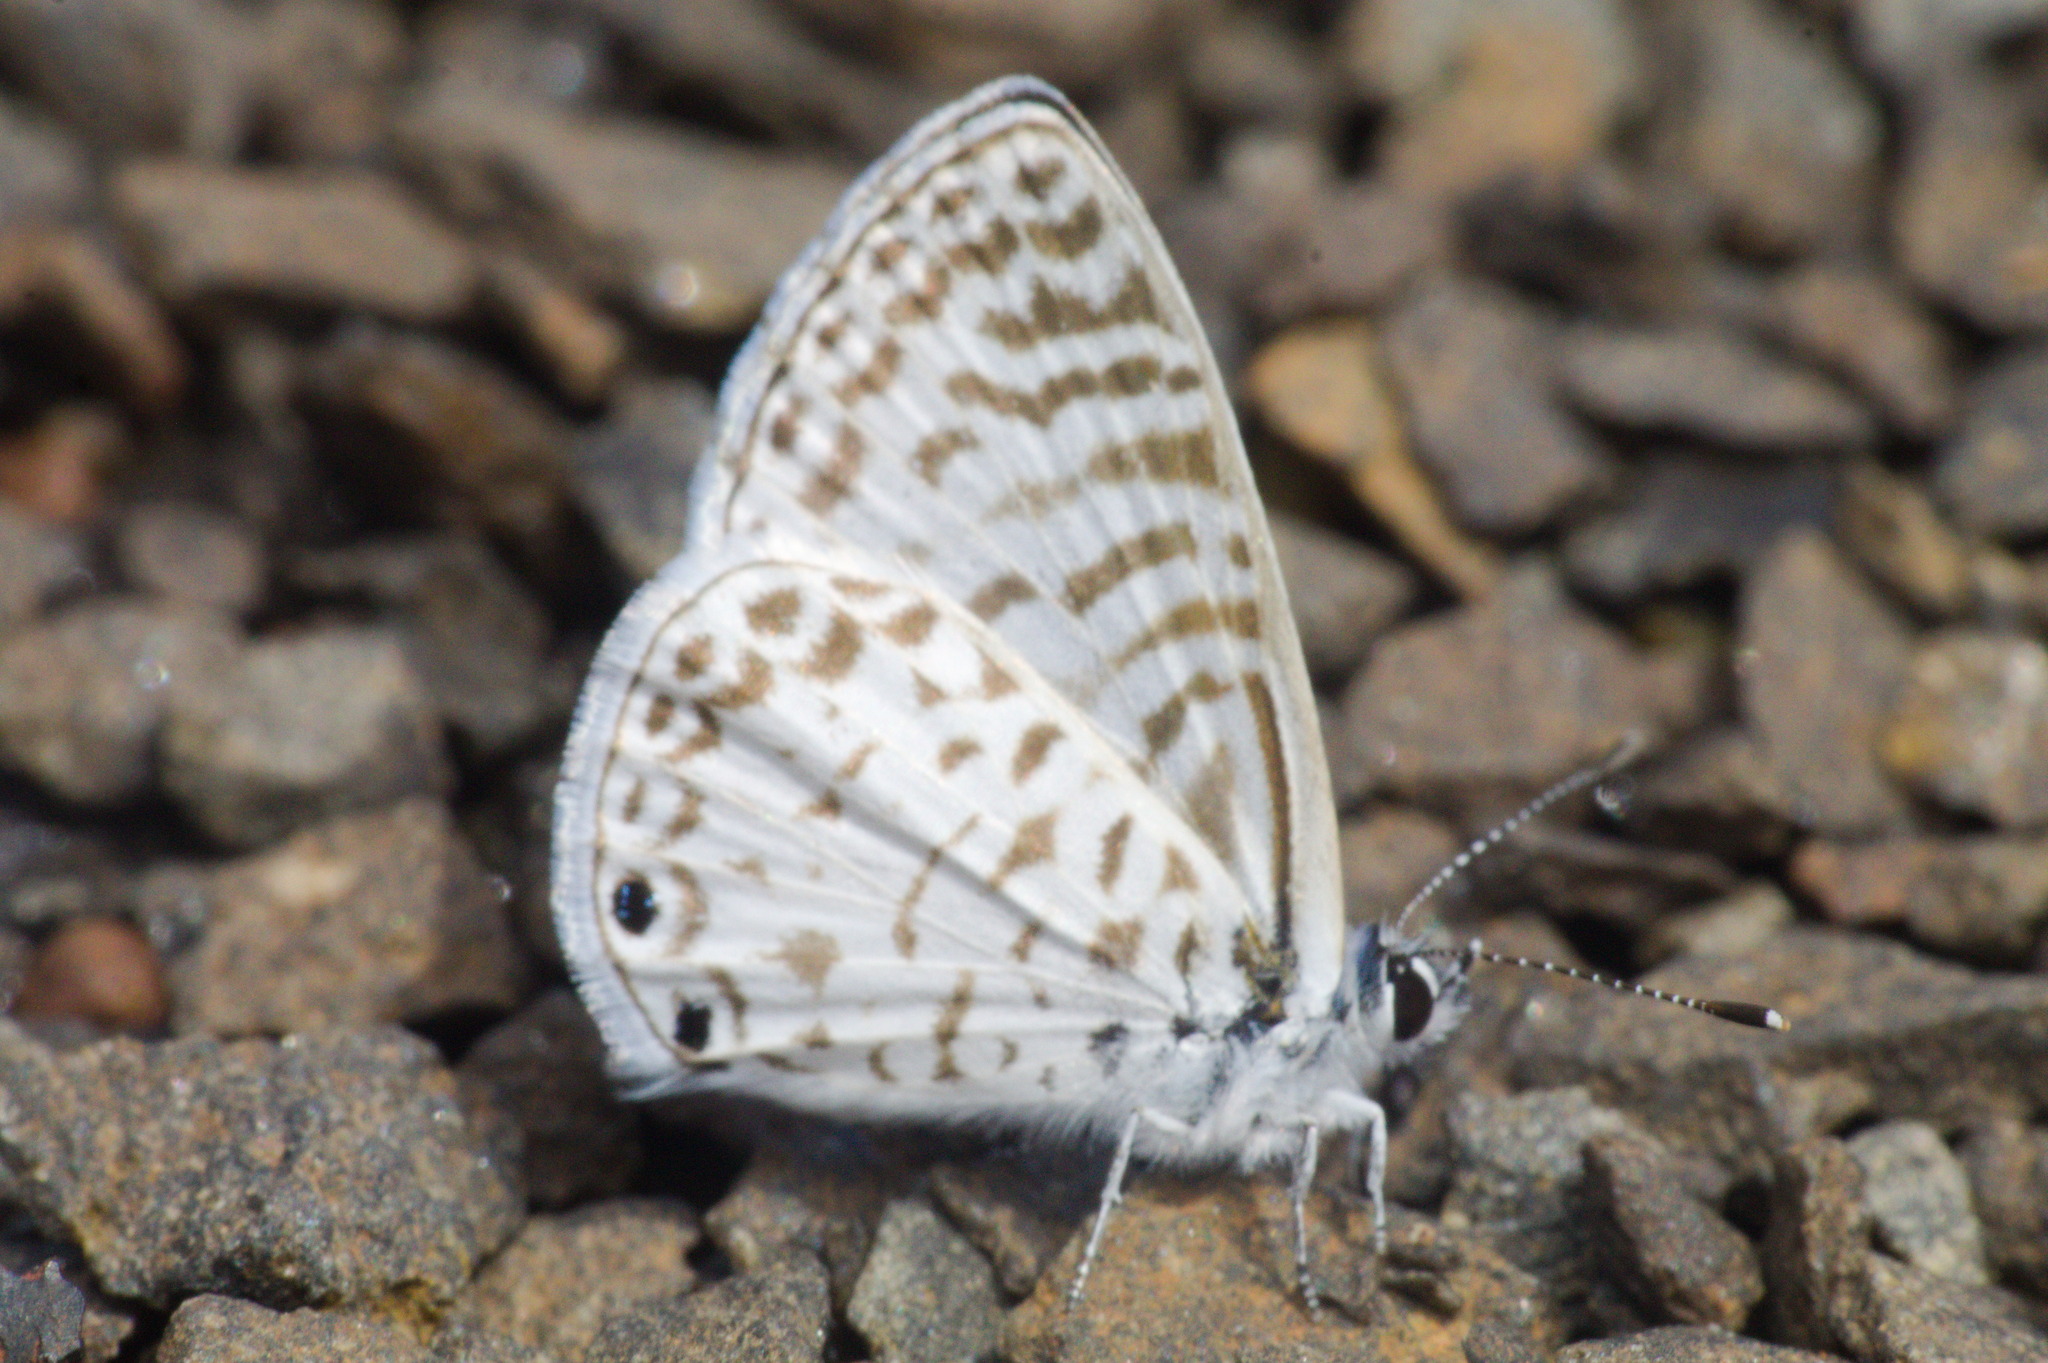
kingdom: Animalia
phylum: Arthropoda
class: Insecta
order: Lepidoptera
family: Lycaenidae
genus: Leptotes
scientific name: Leptotes cassius
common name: Cassius blue
